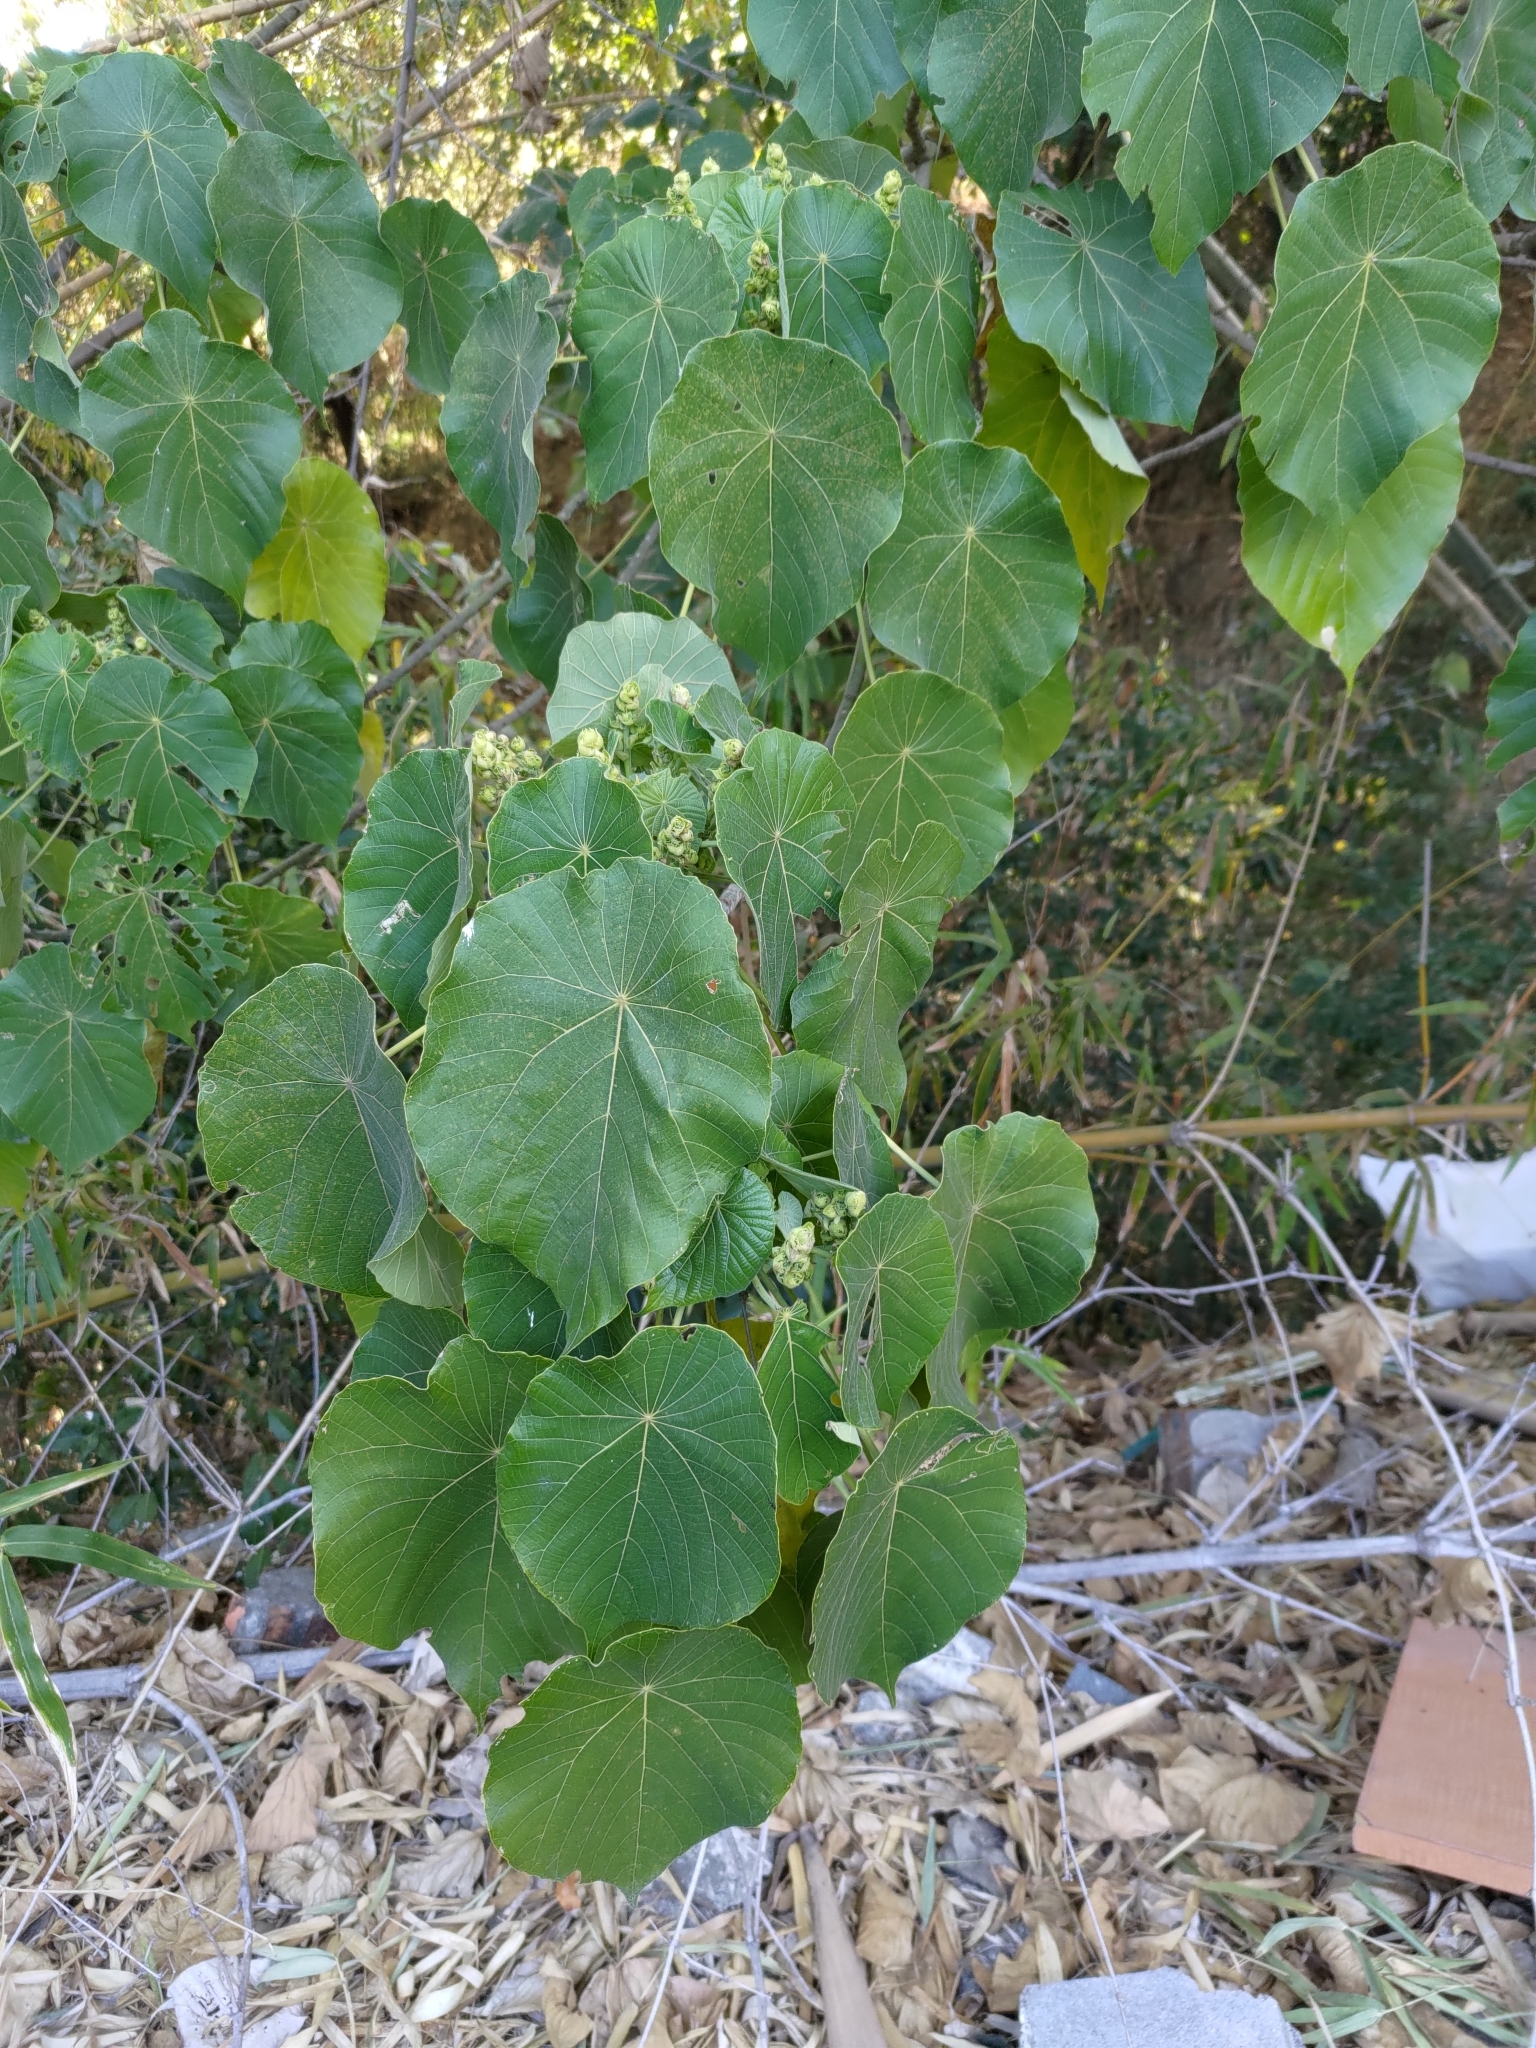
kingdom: Plantae
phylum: Tracheophyta
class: Magnoliopsida
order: Malpighiales
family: Euphorbiaceae
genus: Macaranga
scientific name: Macaranga tanarius
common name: Parasol leaf tree
